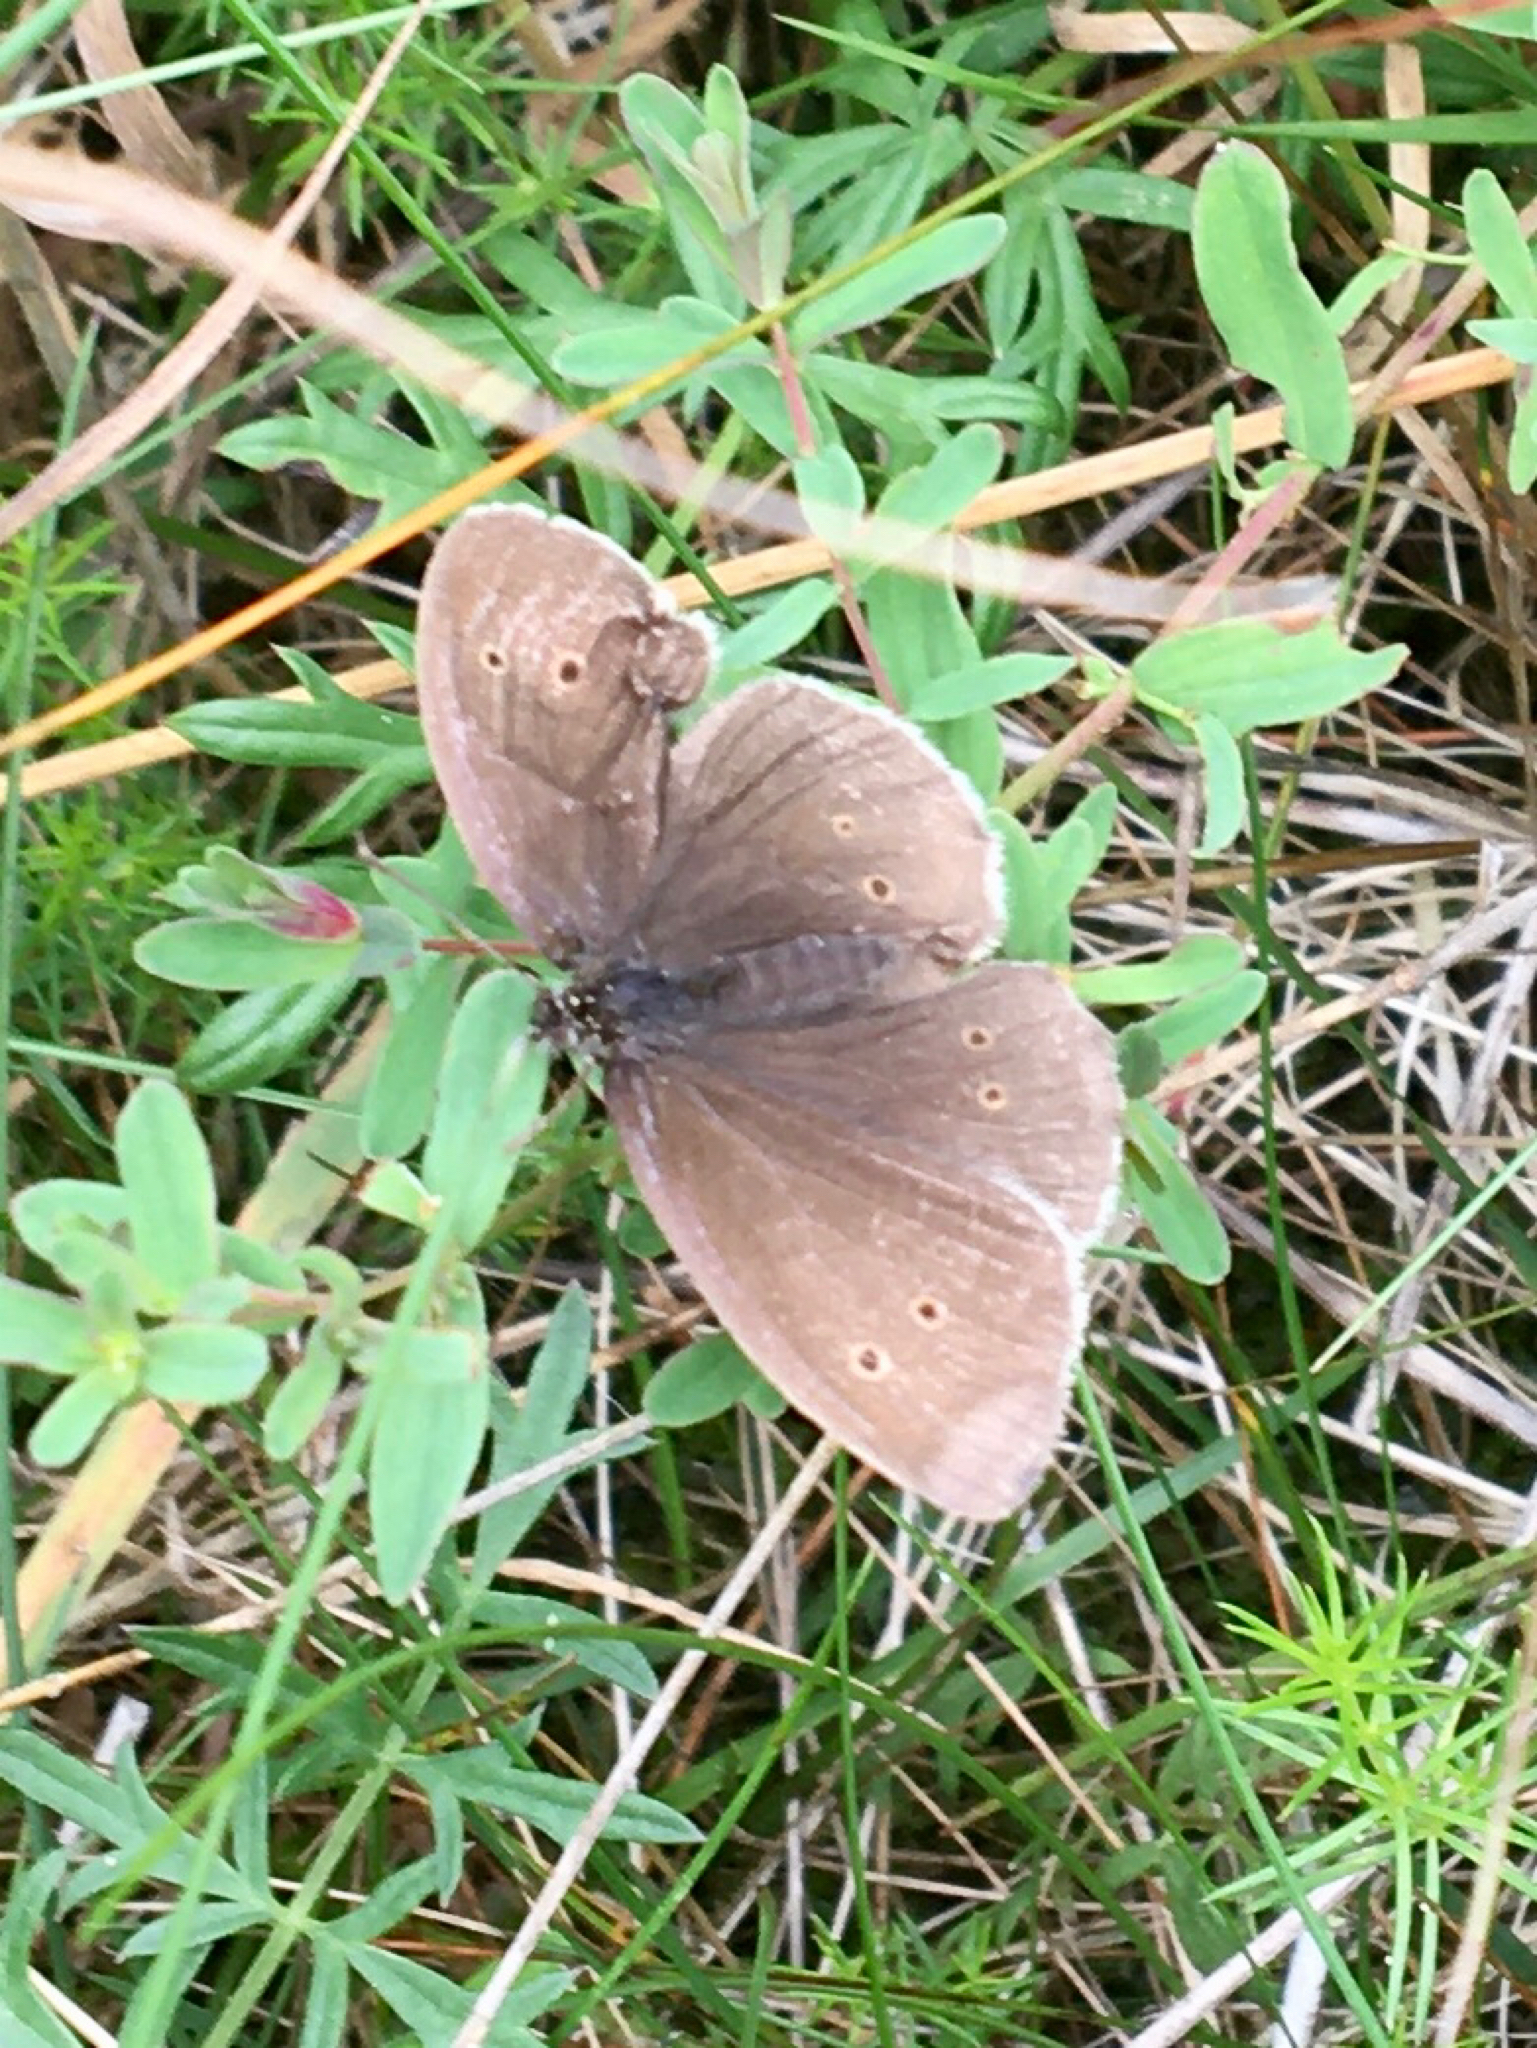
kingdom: Animalia
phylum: Arthropoda
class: Insecta
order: Lepidoptera
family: Nymphalidae
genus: Aphantopus
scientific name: Aphantopus hyperantus
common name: Ringlet
